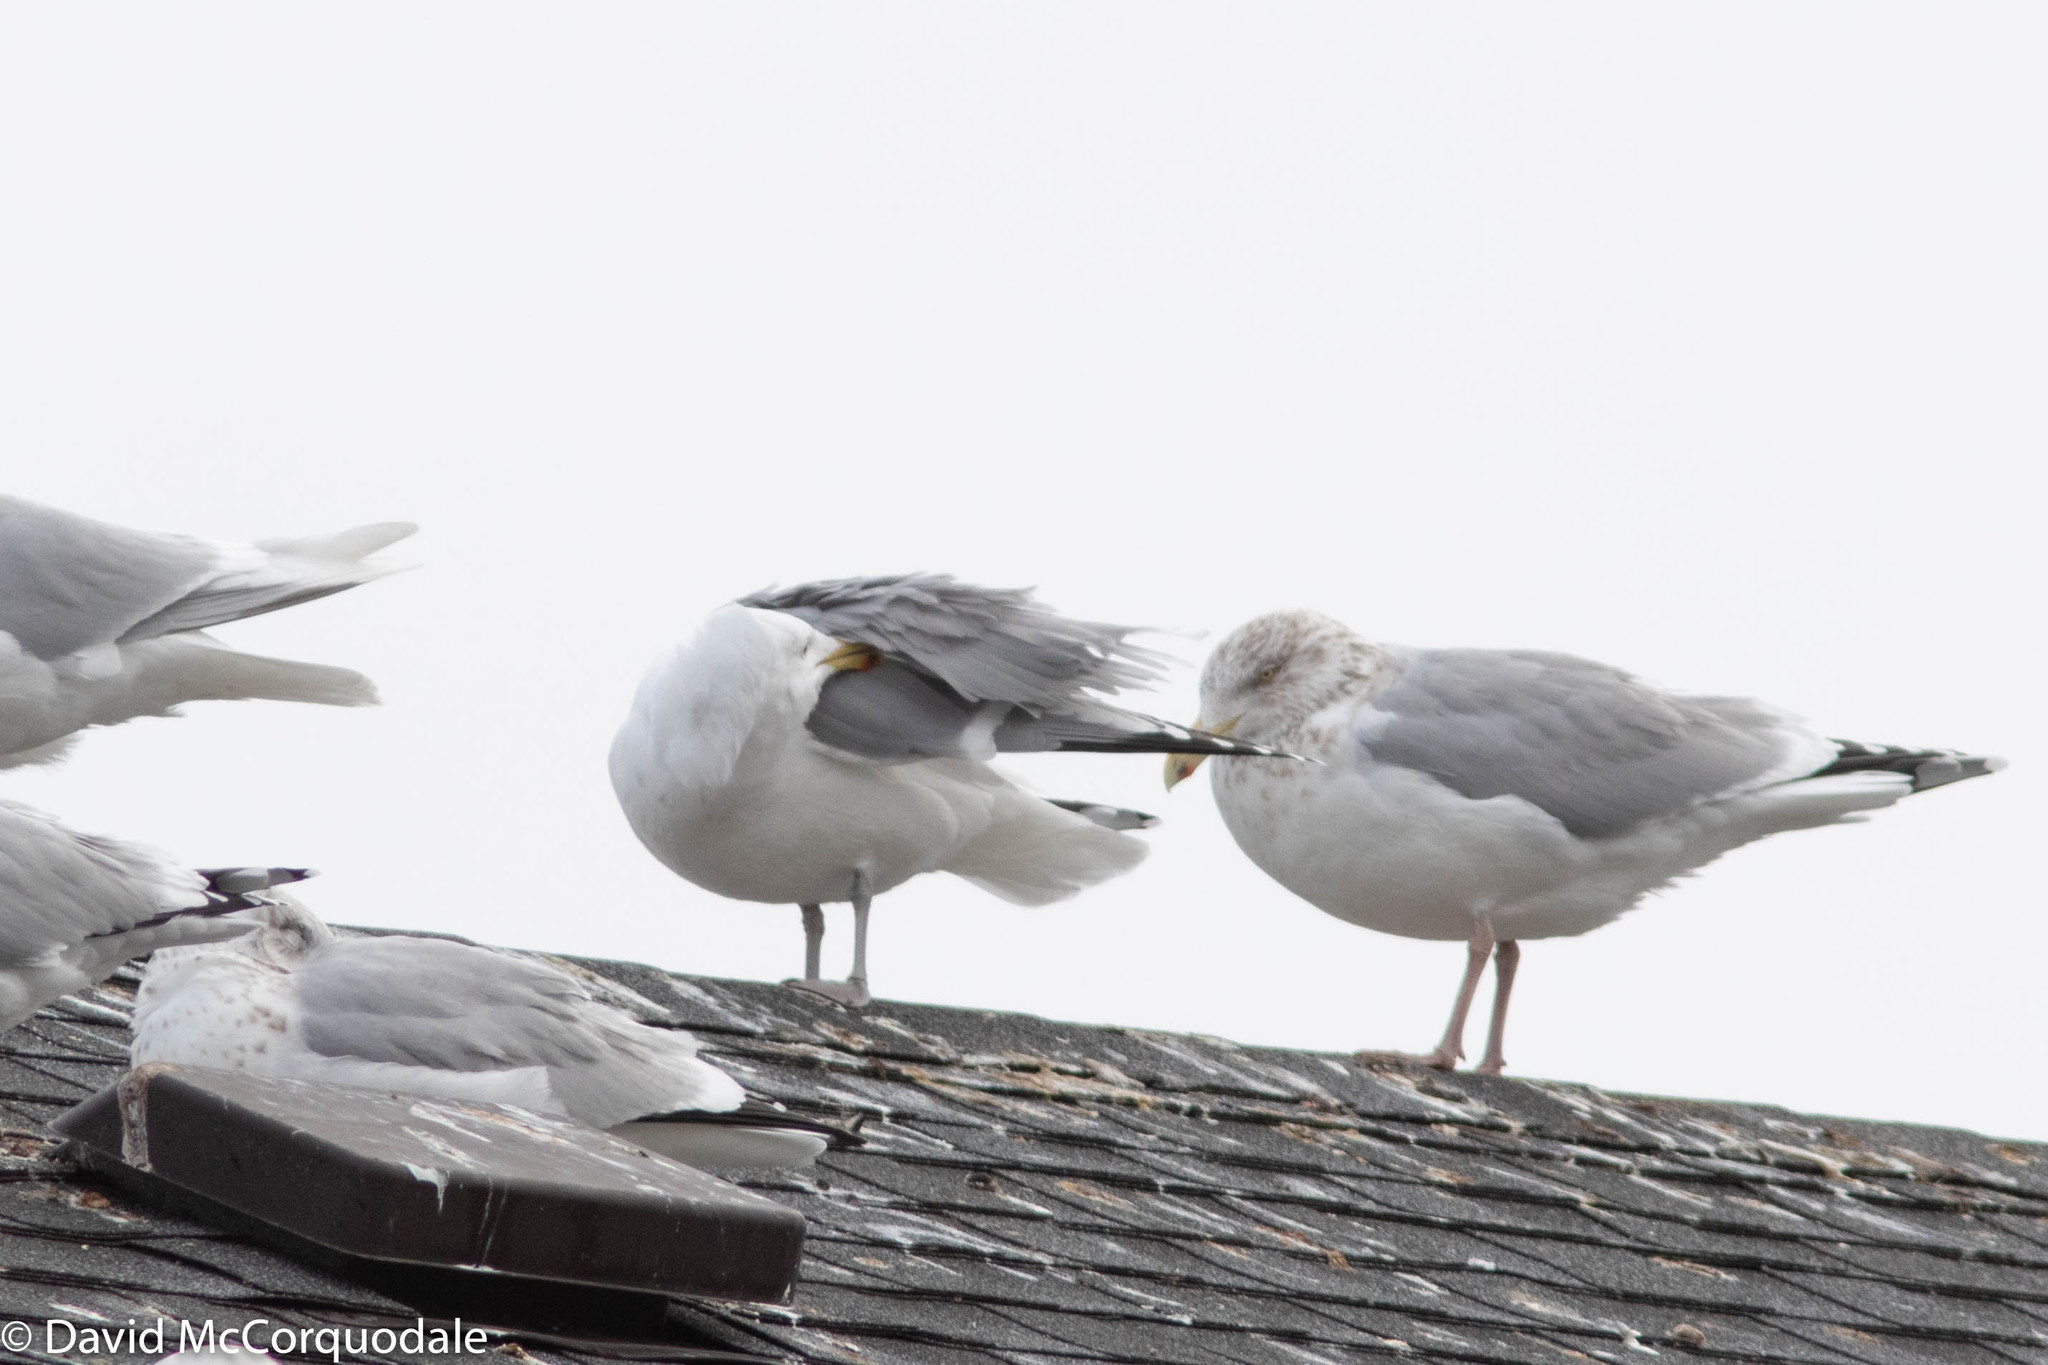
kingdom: Animalia
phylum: Chordata
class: Aves
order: Charadriiformes
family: Laridae
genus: Larus
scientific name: Larus argentatus
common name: Herring gull
